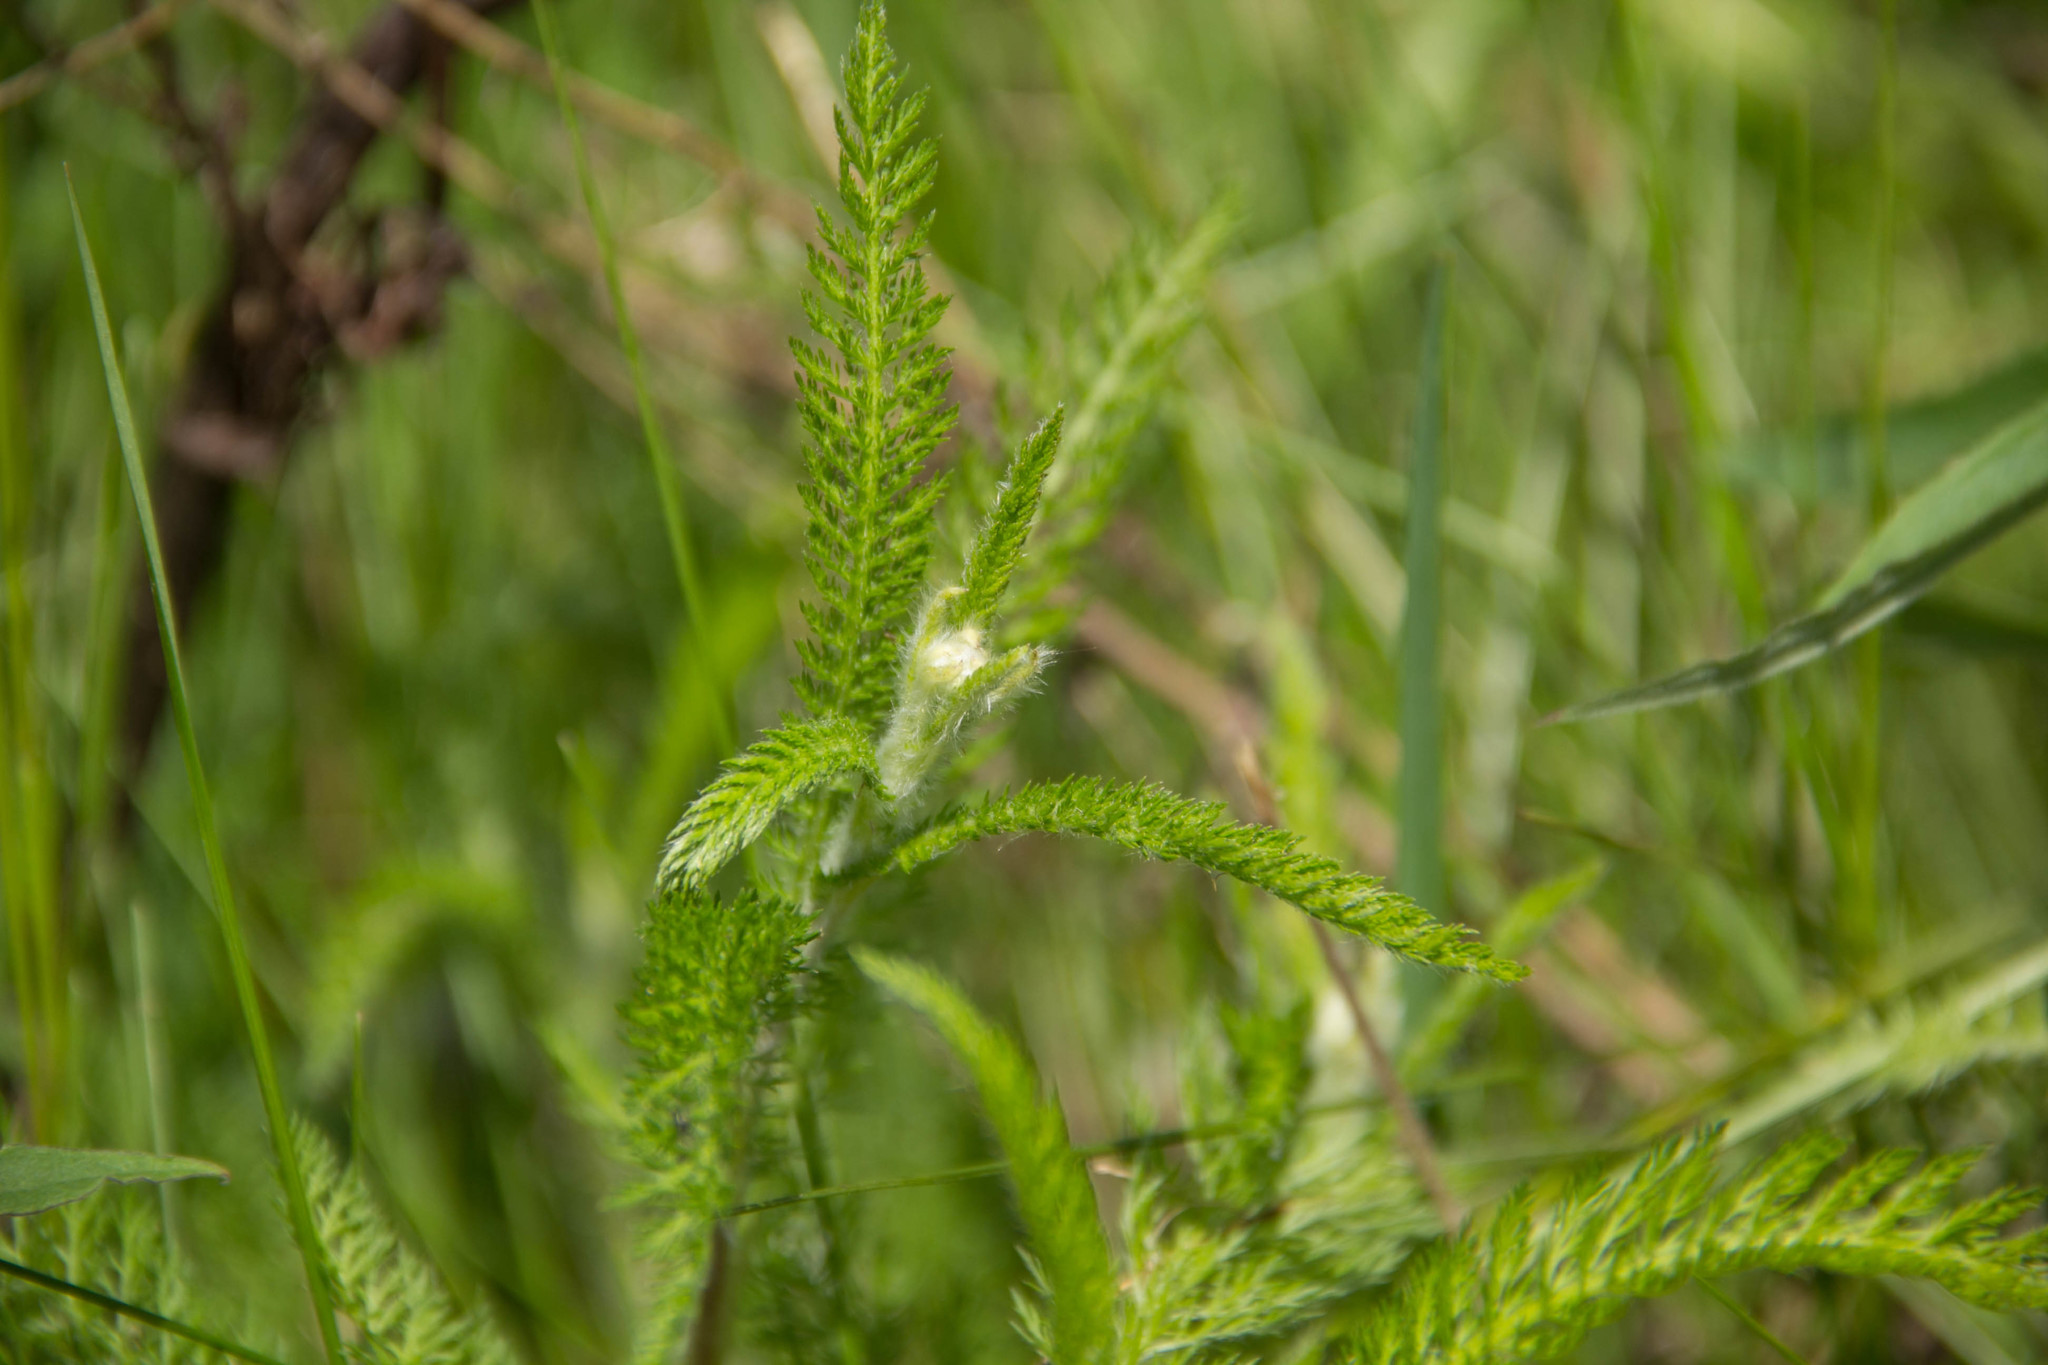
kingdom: Plantae
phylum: Tracheophyta
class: Magnoliopsida
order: Asterales
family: Asteraceae
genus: Achillea
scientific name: Achillea millefolium
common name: Yarrow
